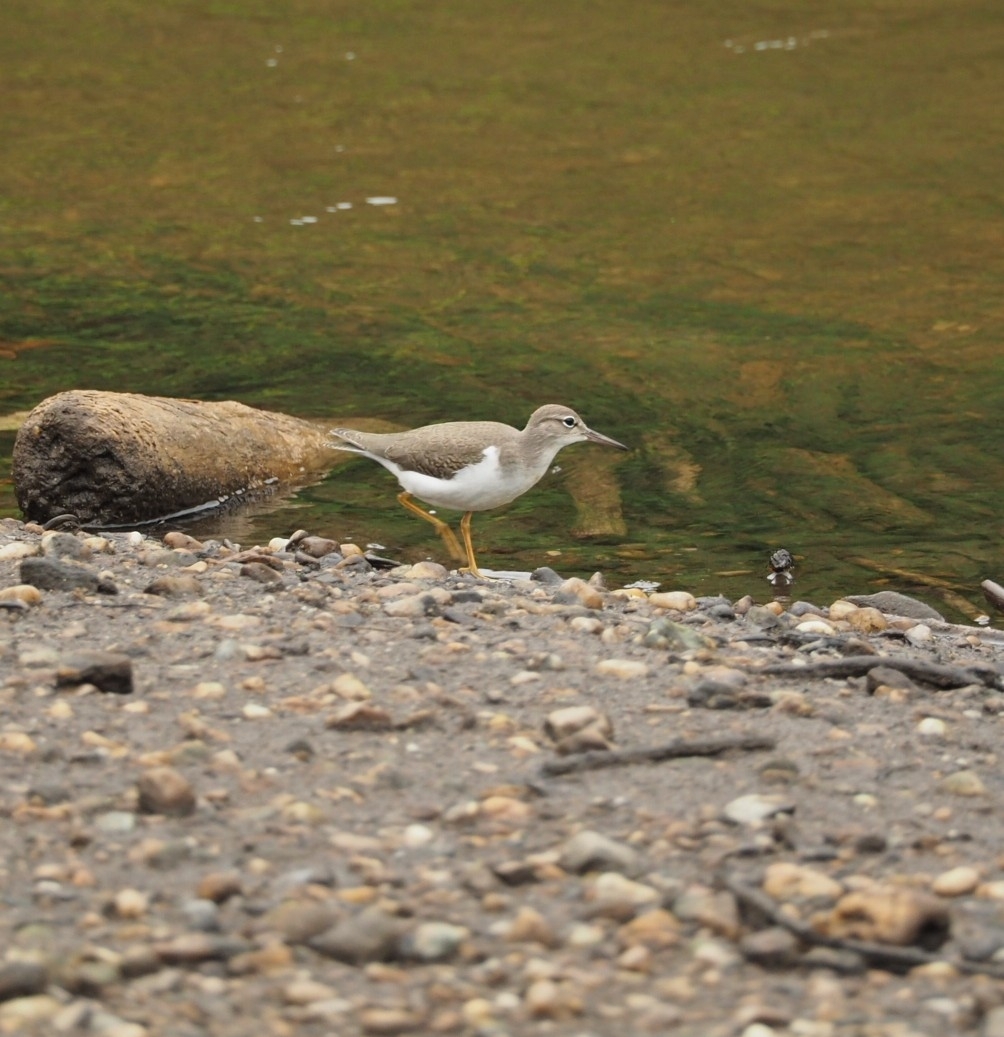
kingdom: Animalia
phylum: Chordata
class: Aves
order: Charadriiformes
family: Scolopacidae
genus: Actitis
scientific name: Actitis macularius
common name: Spotted sandpiper
